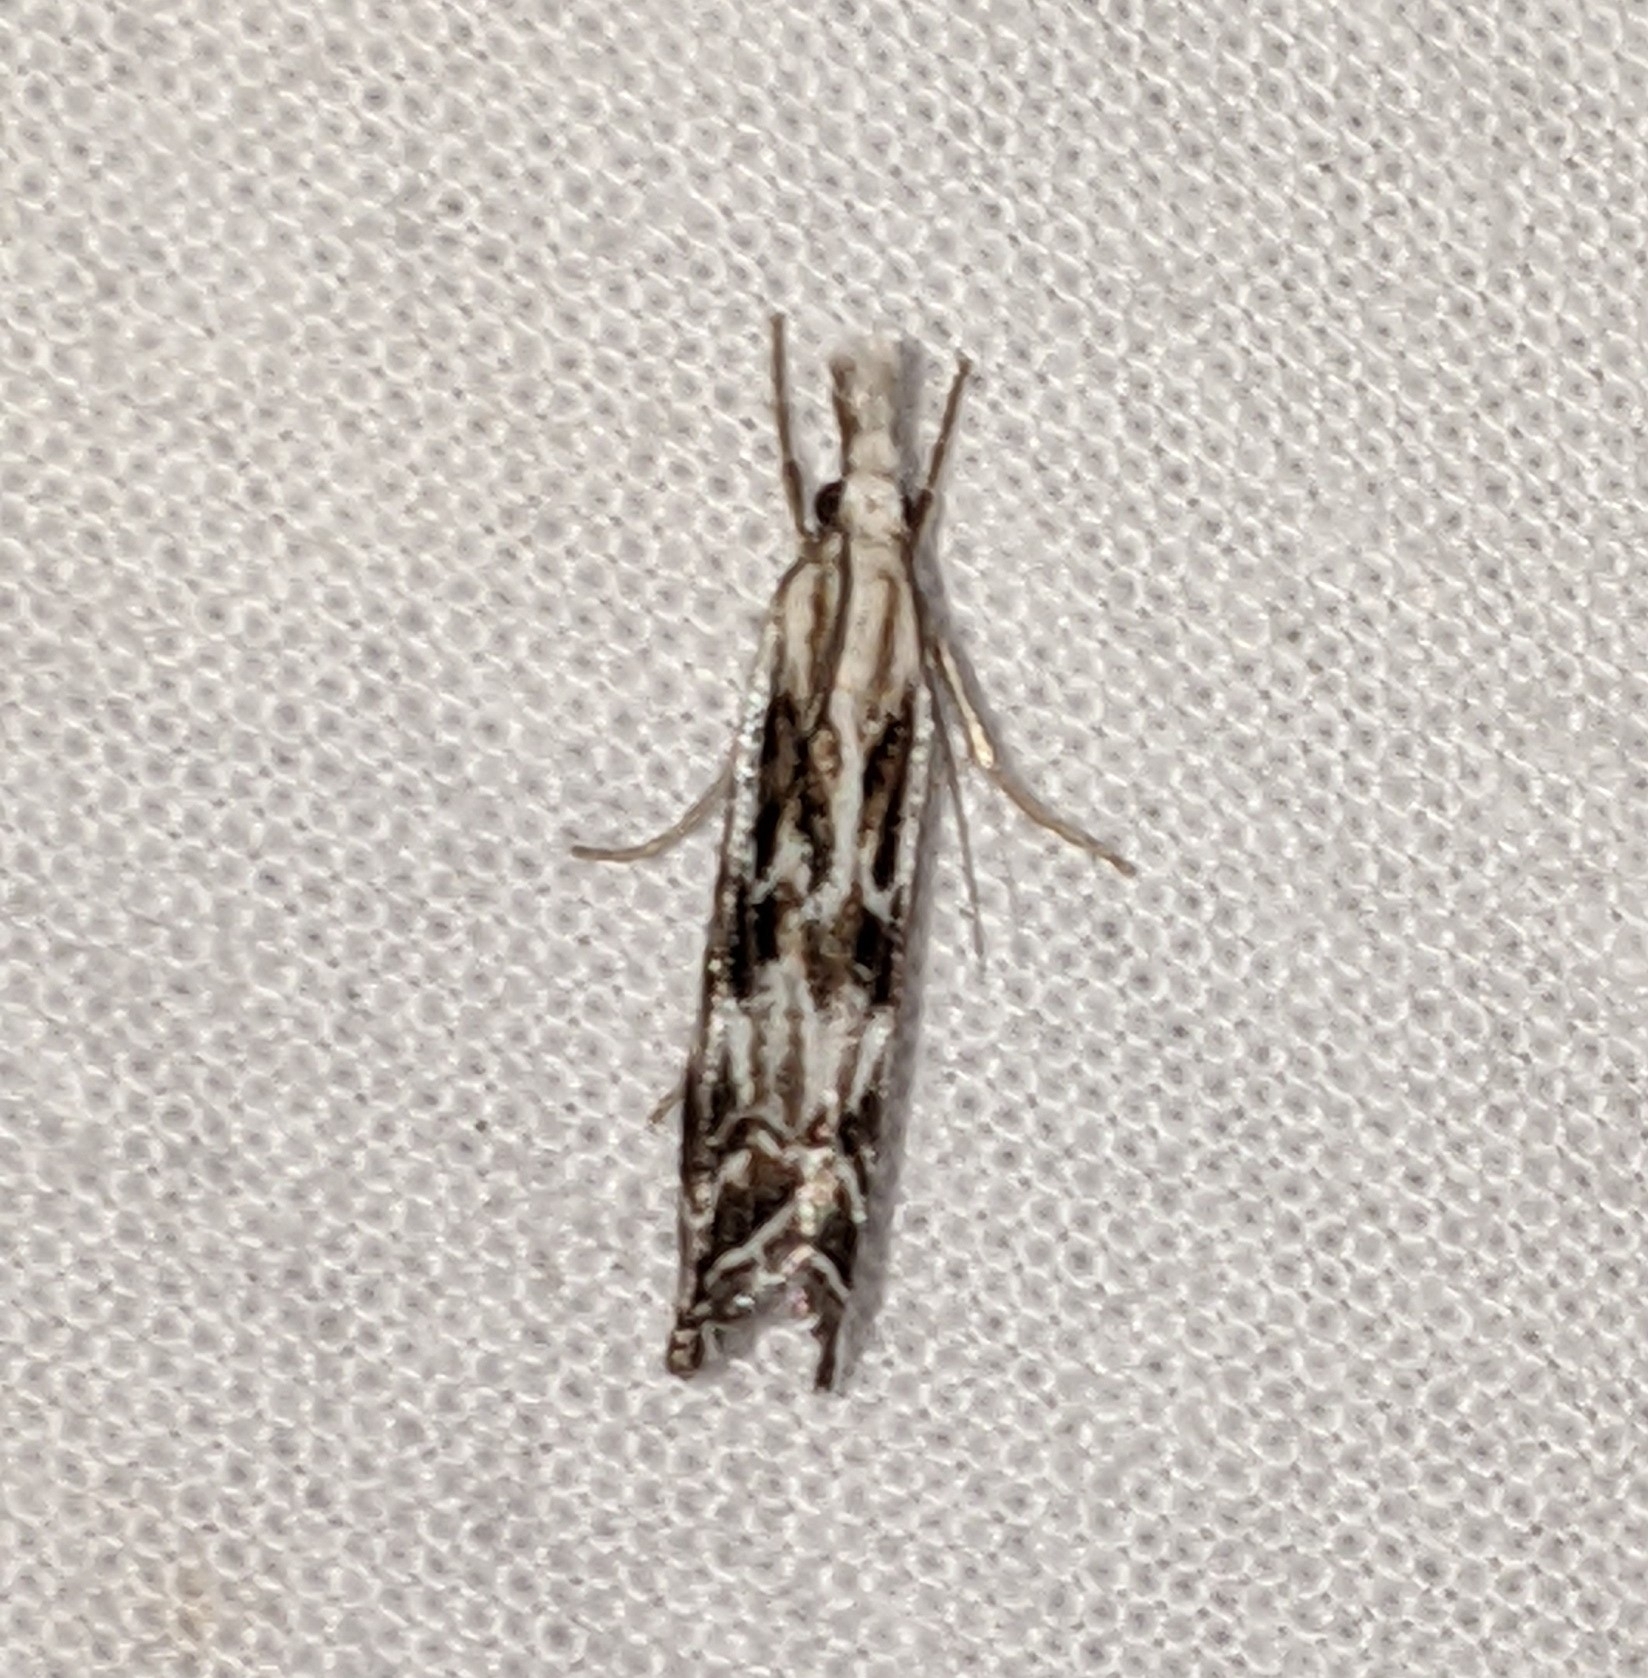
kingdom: Animalia
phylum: Arthropoda
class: Insecta
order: Lepidoptera
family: Crambidae
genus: Catoptria
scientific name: Catoptria oregonicus
